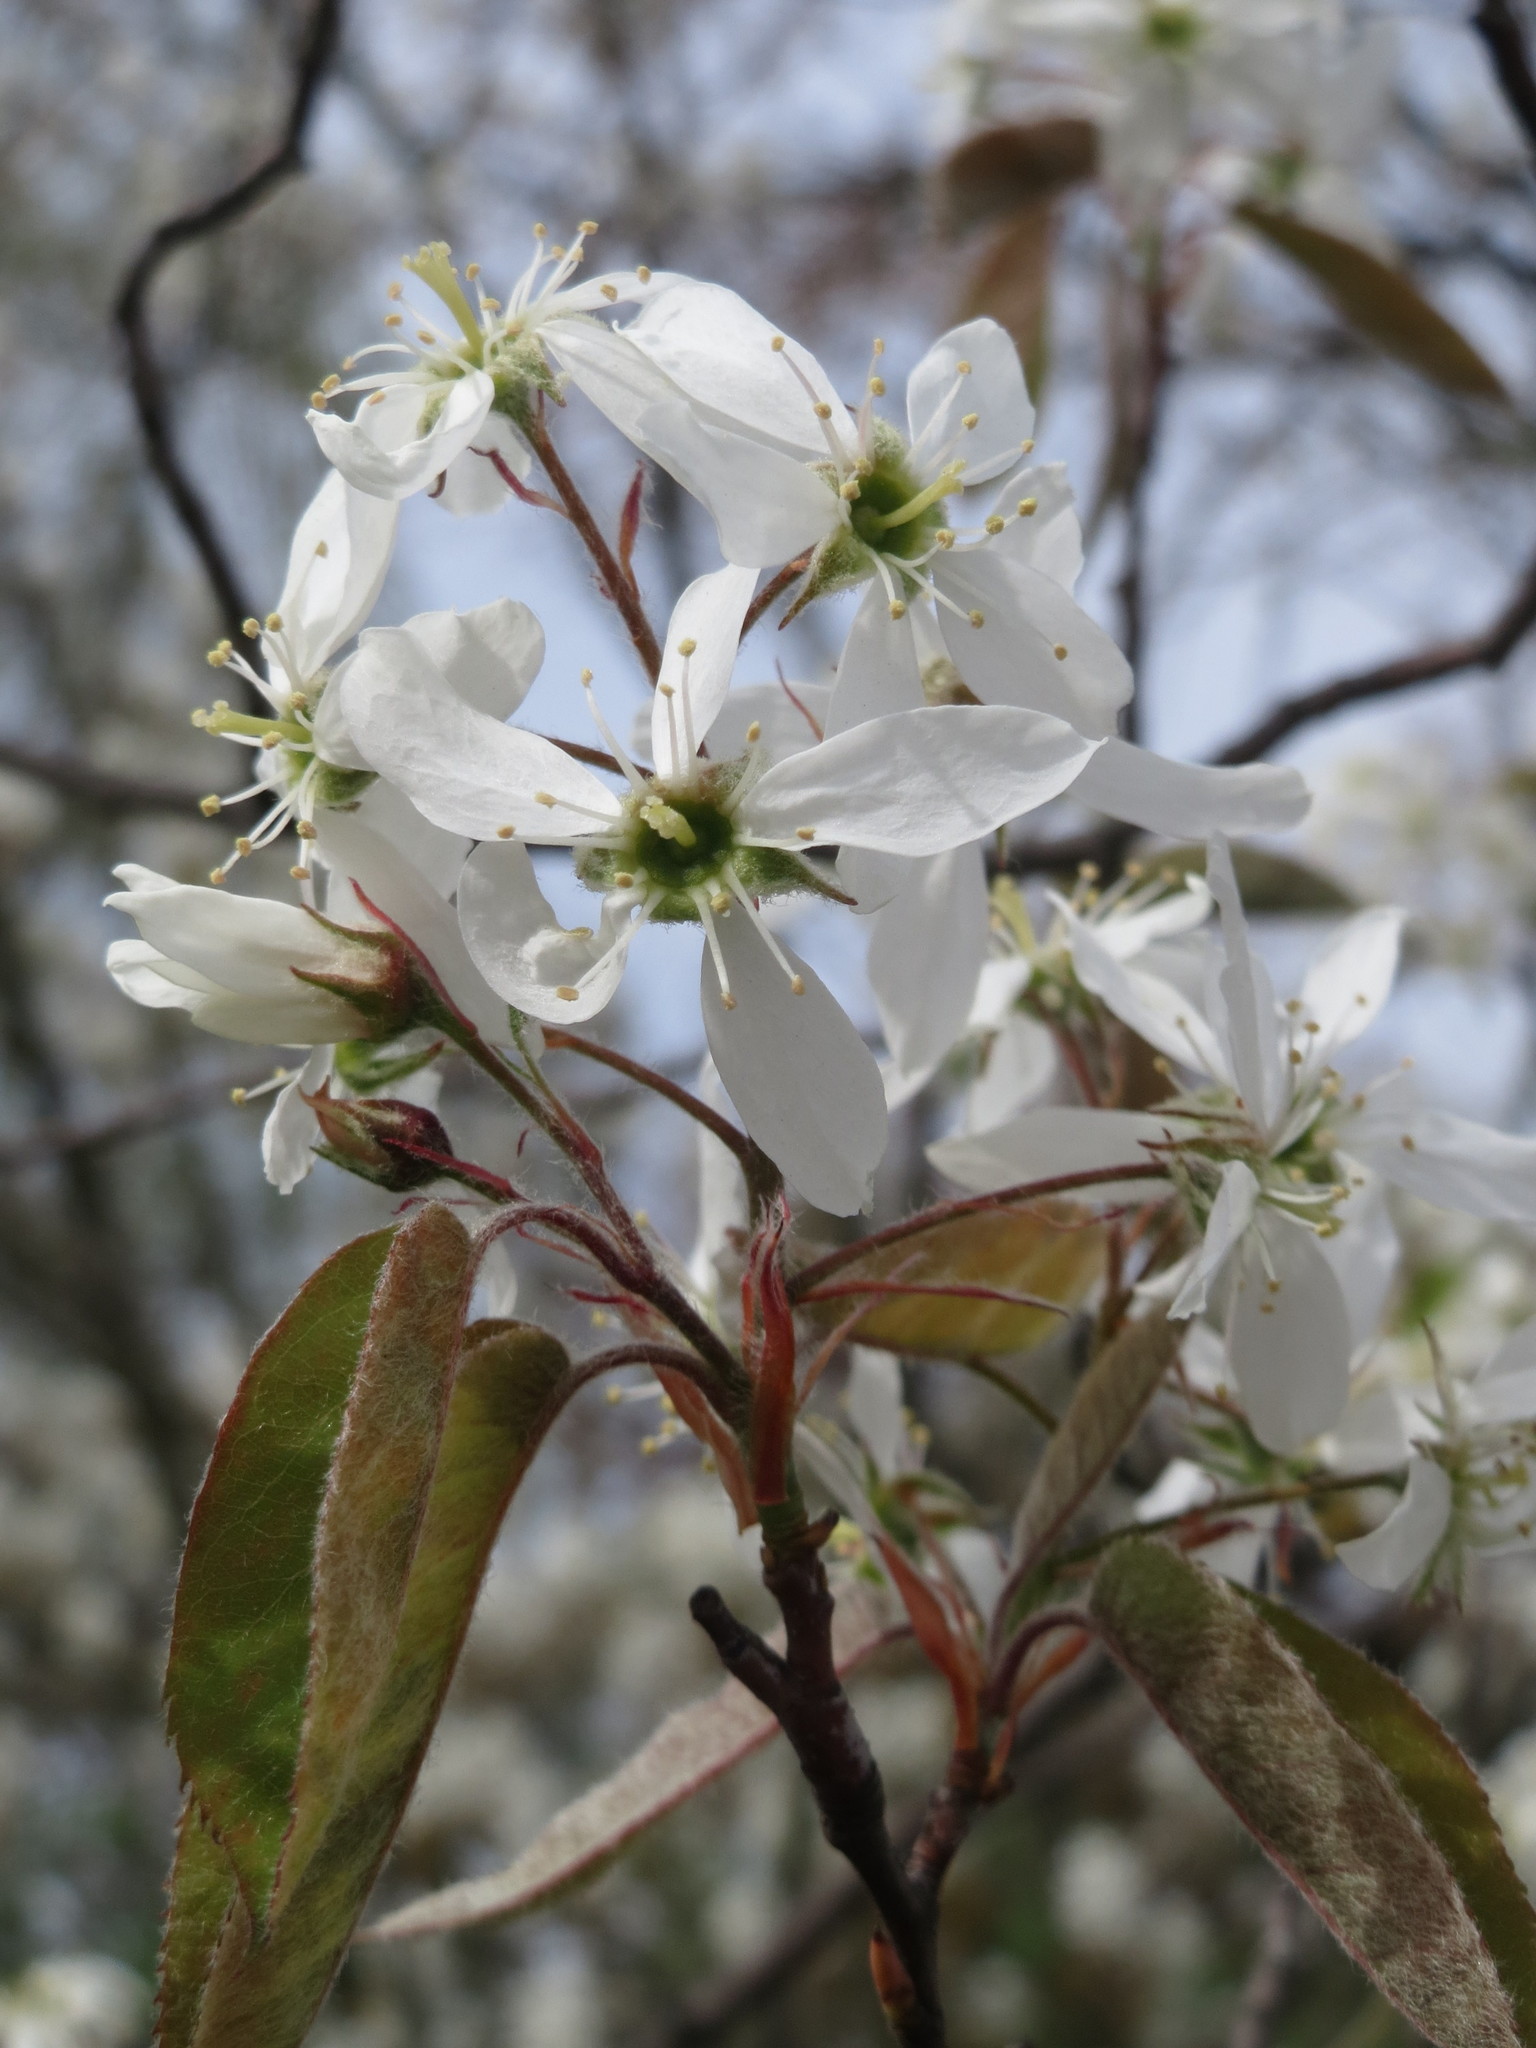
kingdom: Plantae
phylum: Tracheophyta
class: Magnoliopsida
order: Rosales
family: Rosaceae
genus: Amelanchier
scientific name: Amelanchier lamarckii
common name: Juneberry
